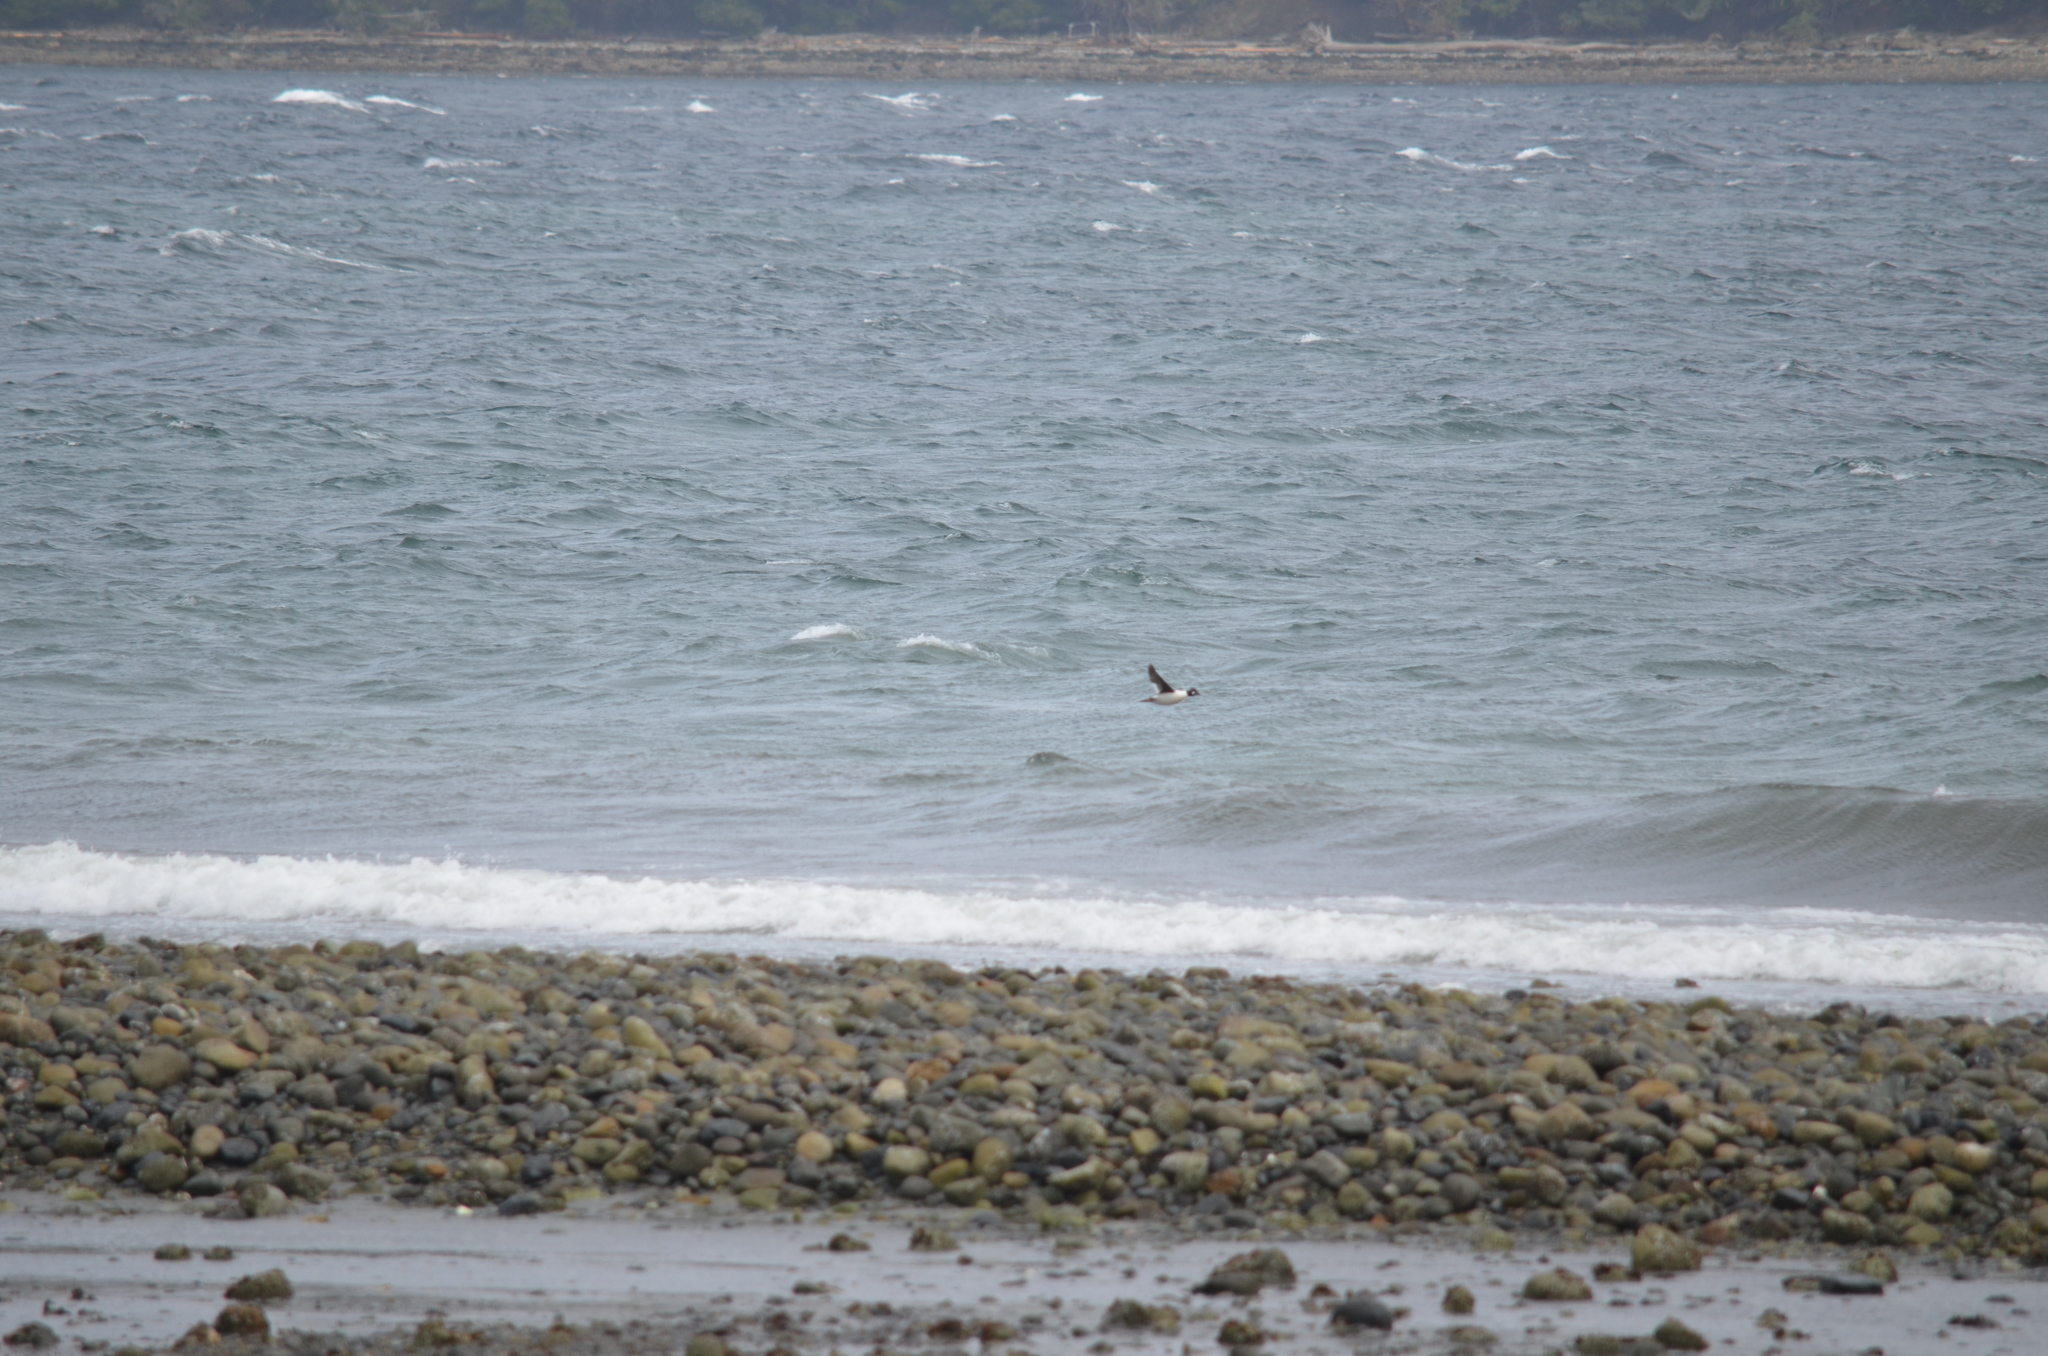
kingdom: Animalia
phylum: Chordata
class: Aves
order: Anseriformes
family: Anatidae
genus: Bucephala
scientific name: Bucephala clangula
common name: Common goldeneye
